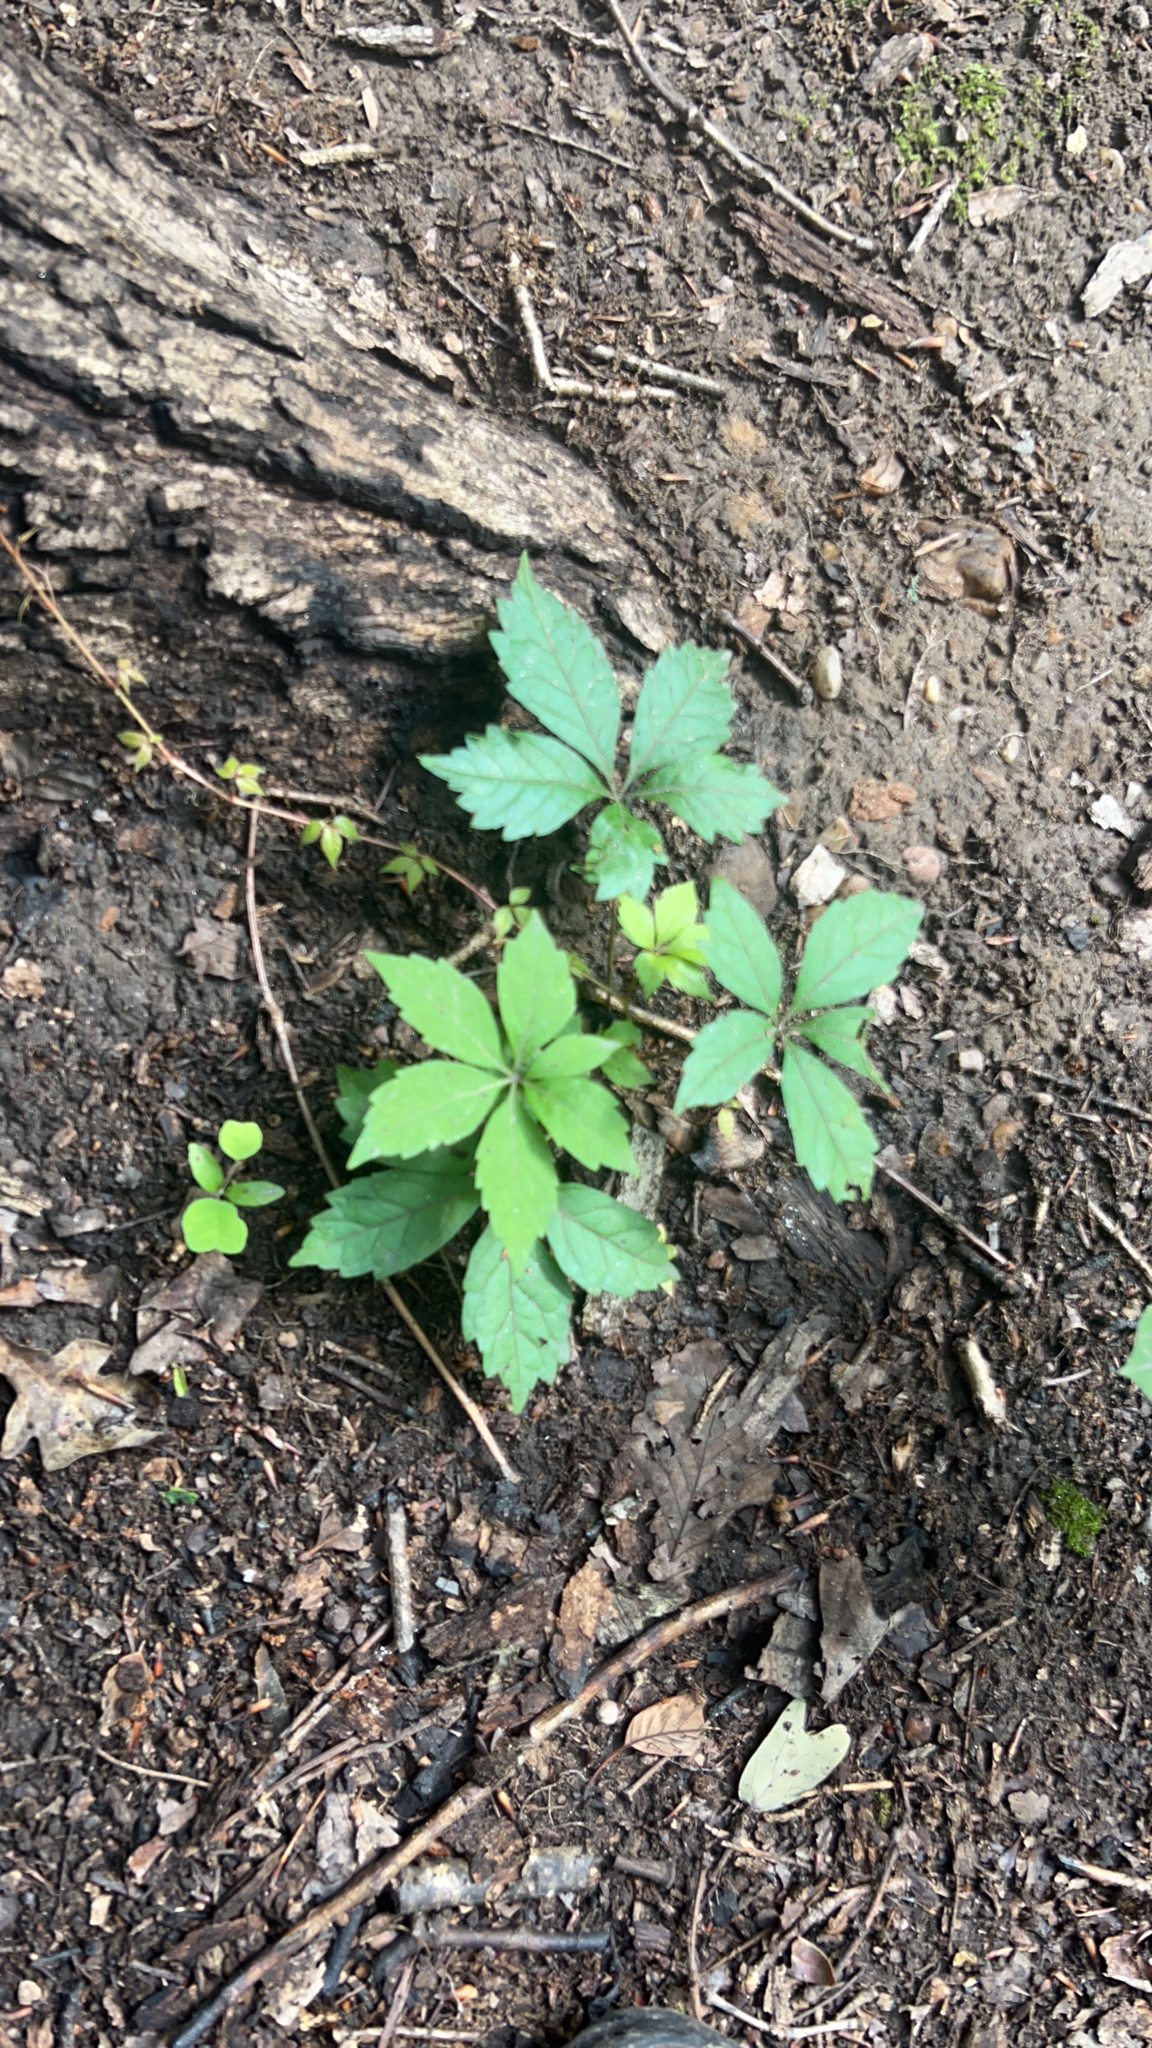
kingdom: Plantae
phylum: Tracheophyta
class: Magnoliopsida
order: Vitales
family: Vitaceae
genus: Parthenocissus
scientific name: Parthenocissus quinquefolia
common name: Virginia-creeper
